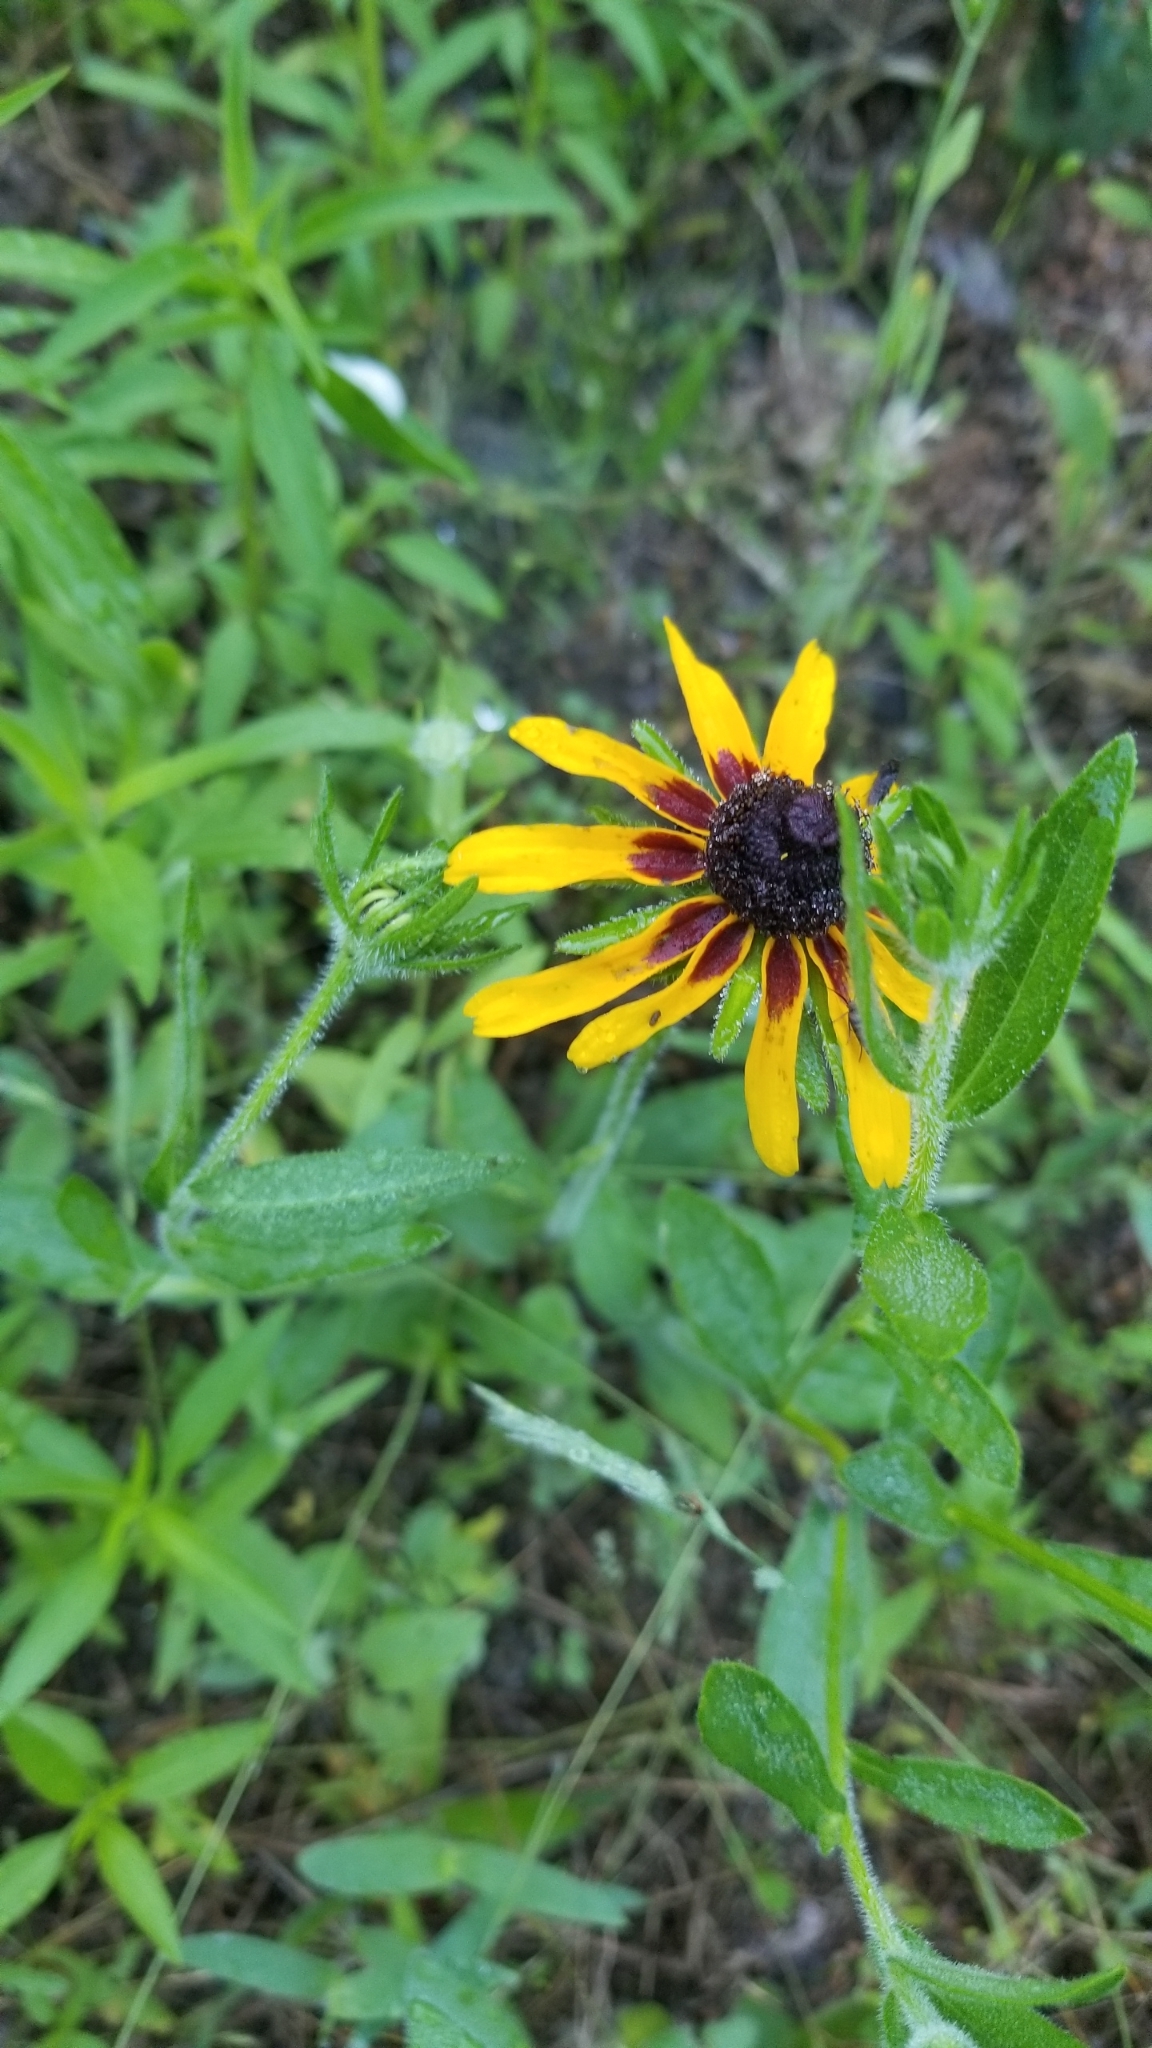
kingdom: Plantae
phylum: Tracheophyta
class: Magnoliopsida
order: Asterales
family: Asteraceae
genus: Rudbeckia
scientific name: Rudbeckia hirta
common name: Black-eyed-susan
